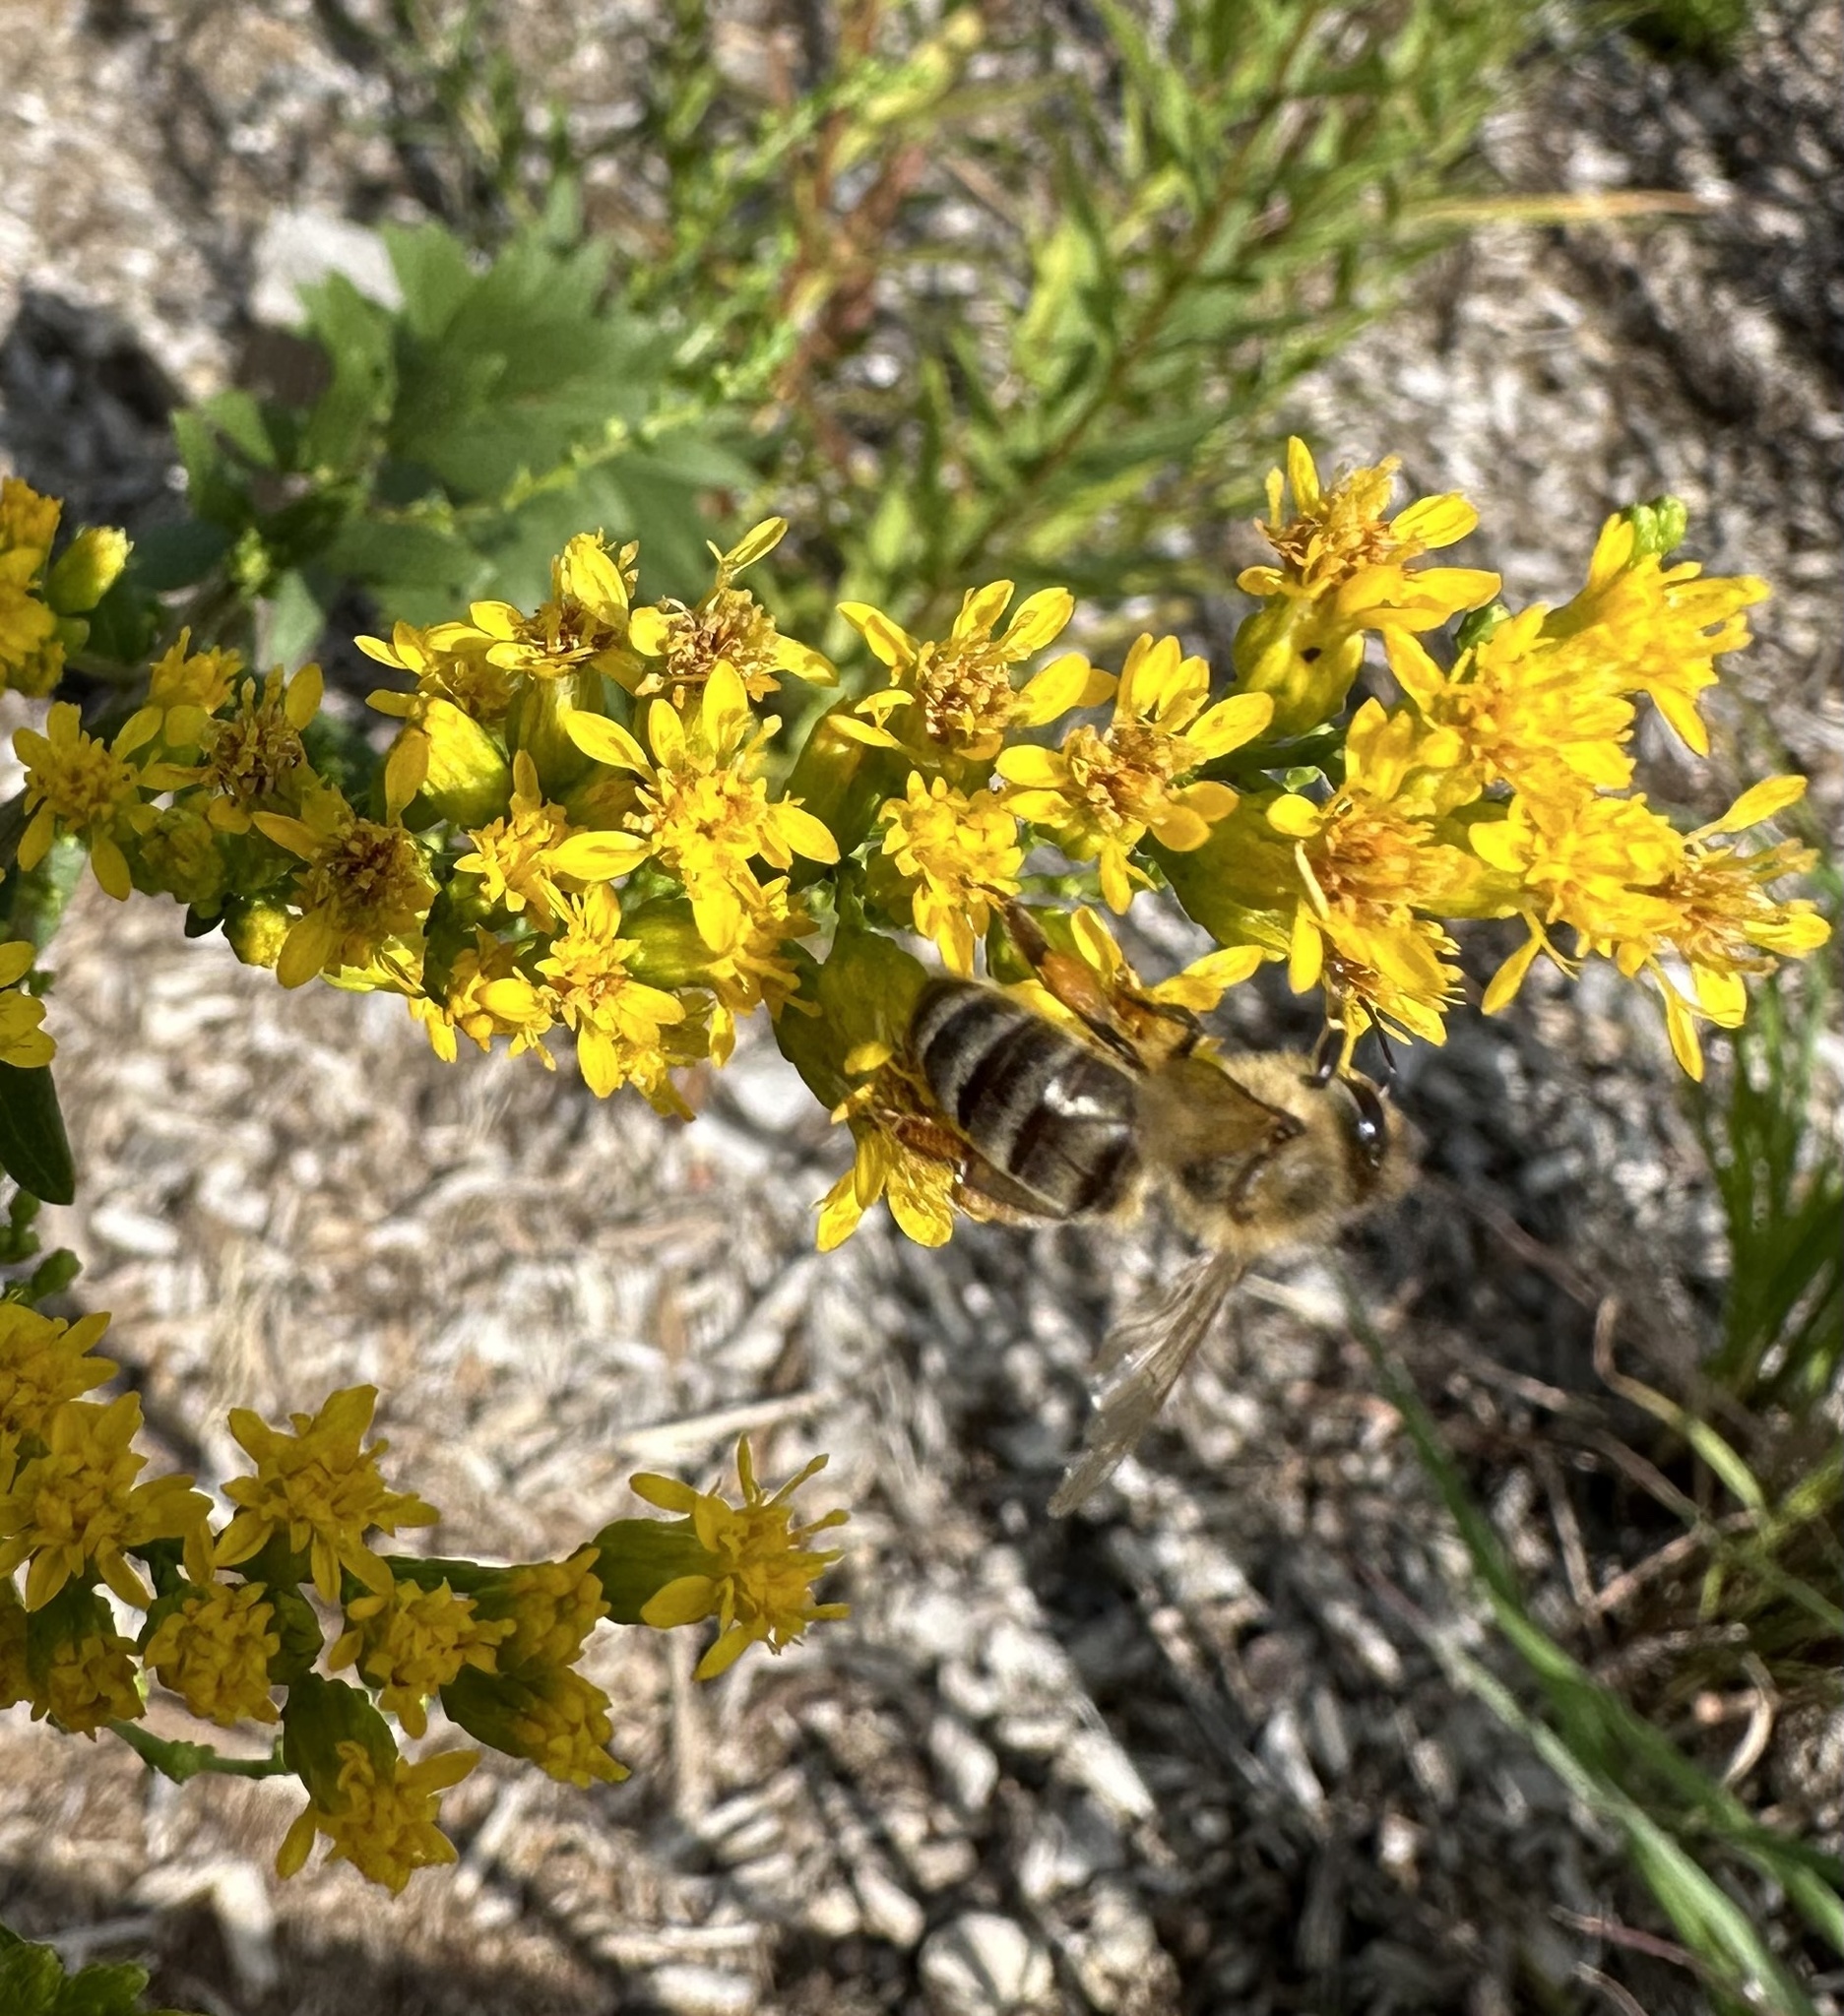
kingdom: Animalia
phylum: Arthropoda
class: Insecta
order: Hymenoptera
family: Apidae
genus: Apis
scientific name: Apis mellifera
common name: Honey bee
